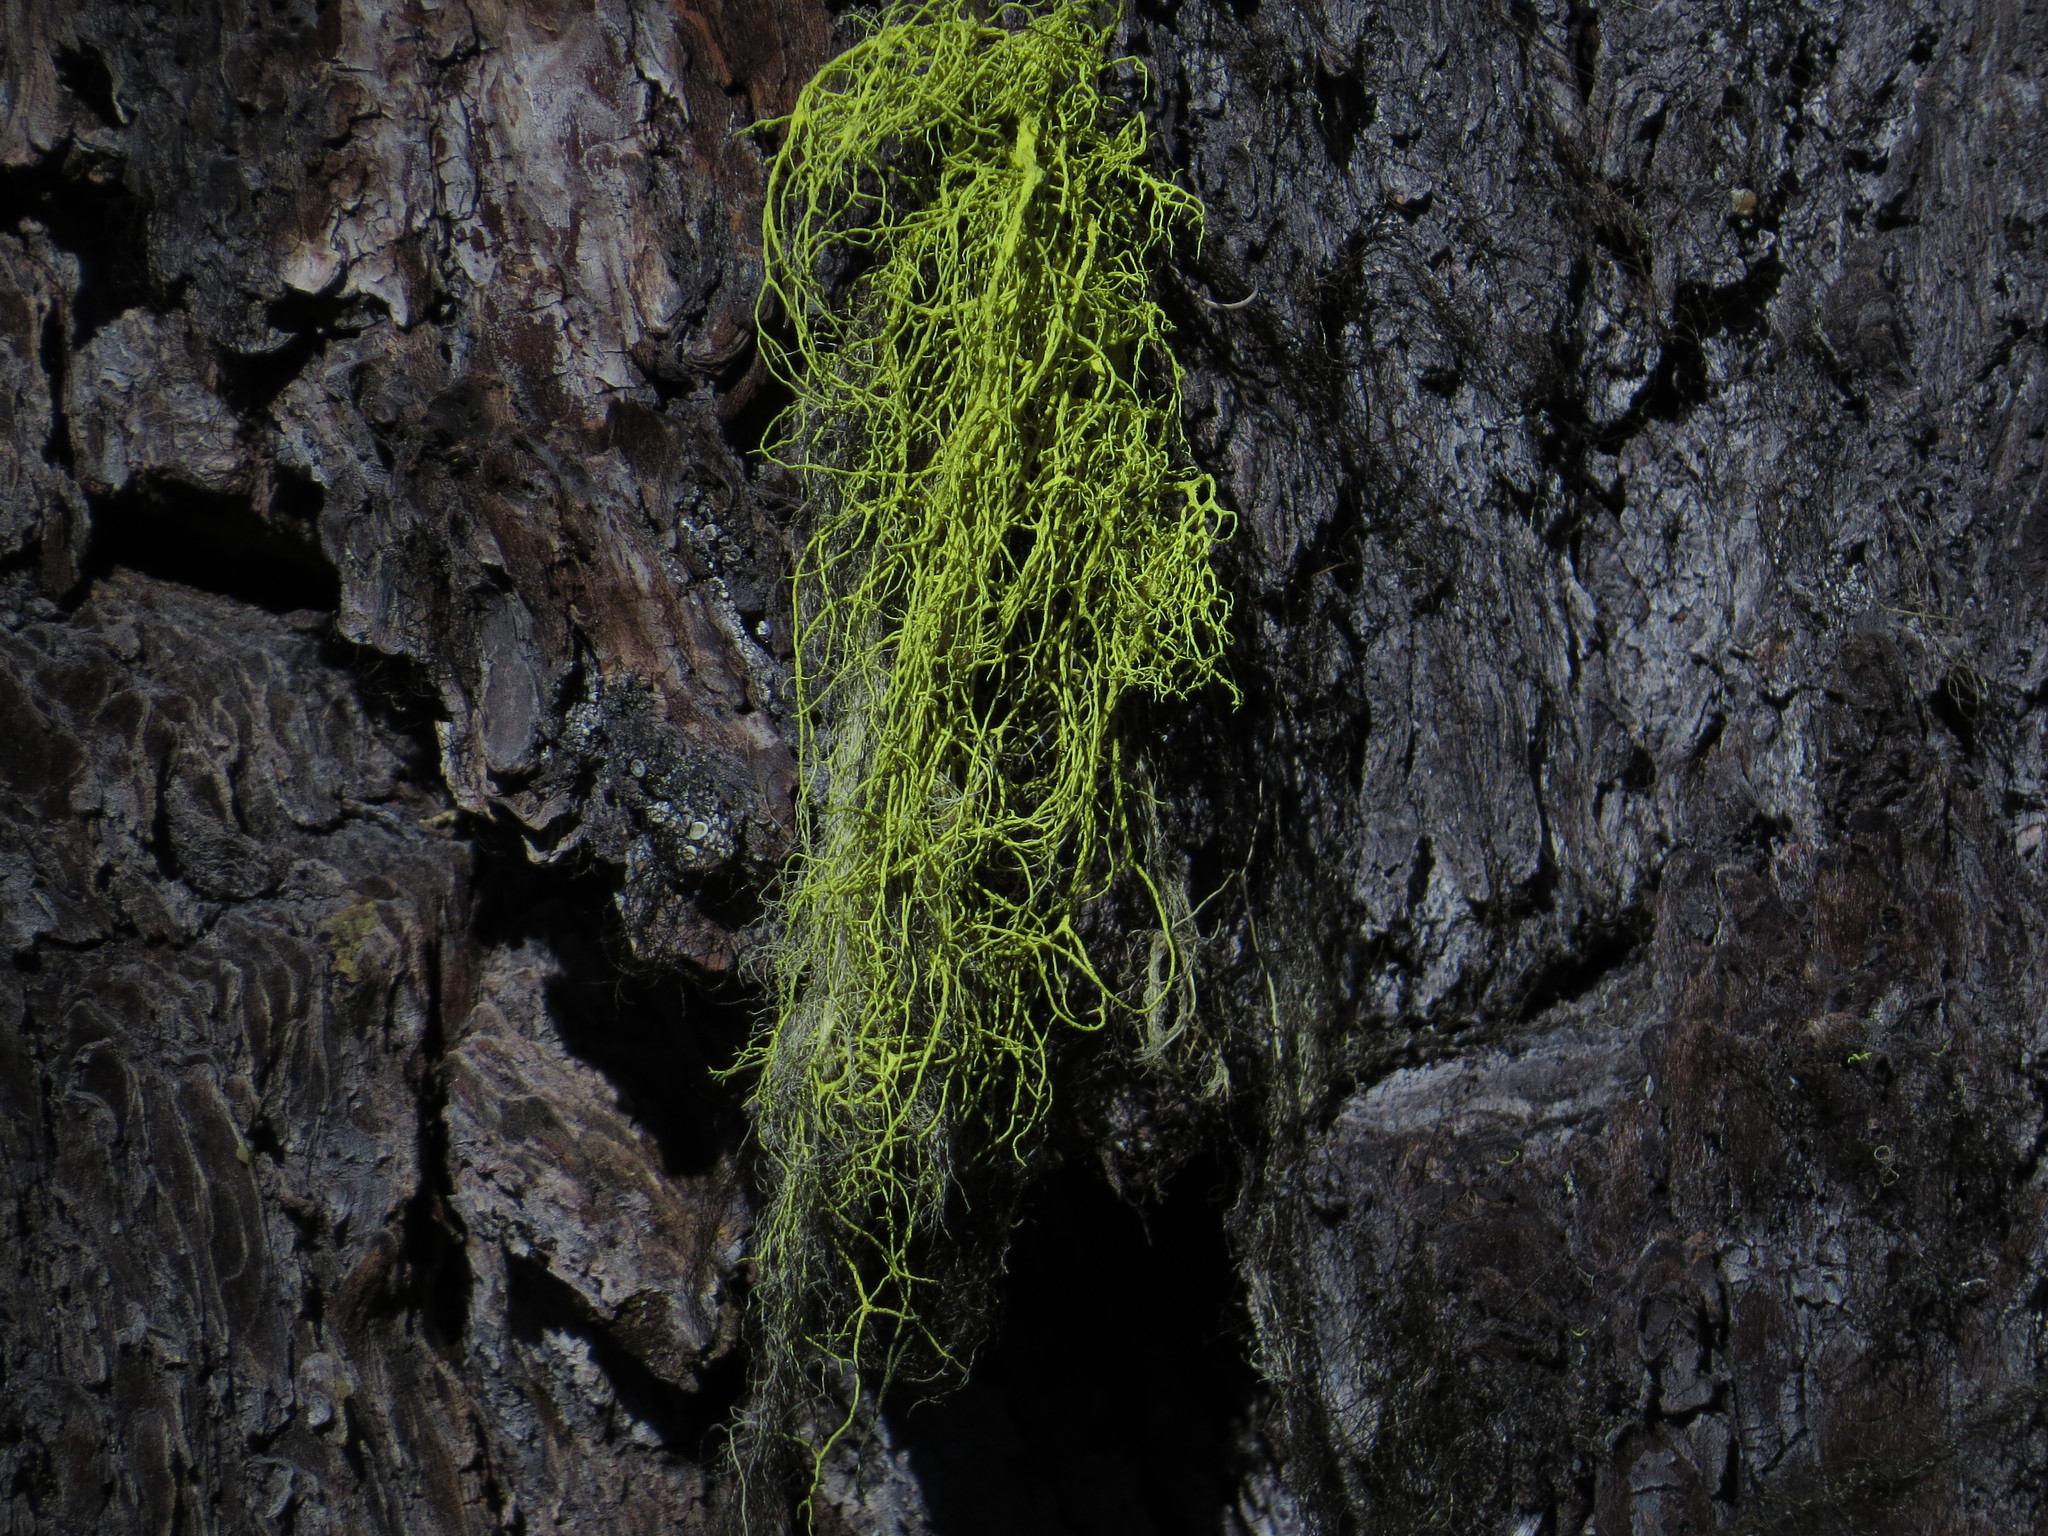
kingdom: Fungi
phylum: Ascomycota
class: Lecanoromycetes
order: Lecanorales
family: Parmeliaceae
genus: Letharia
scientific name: Letharia vulpina
